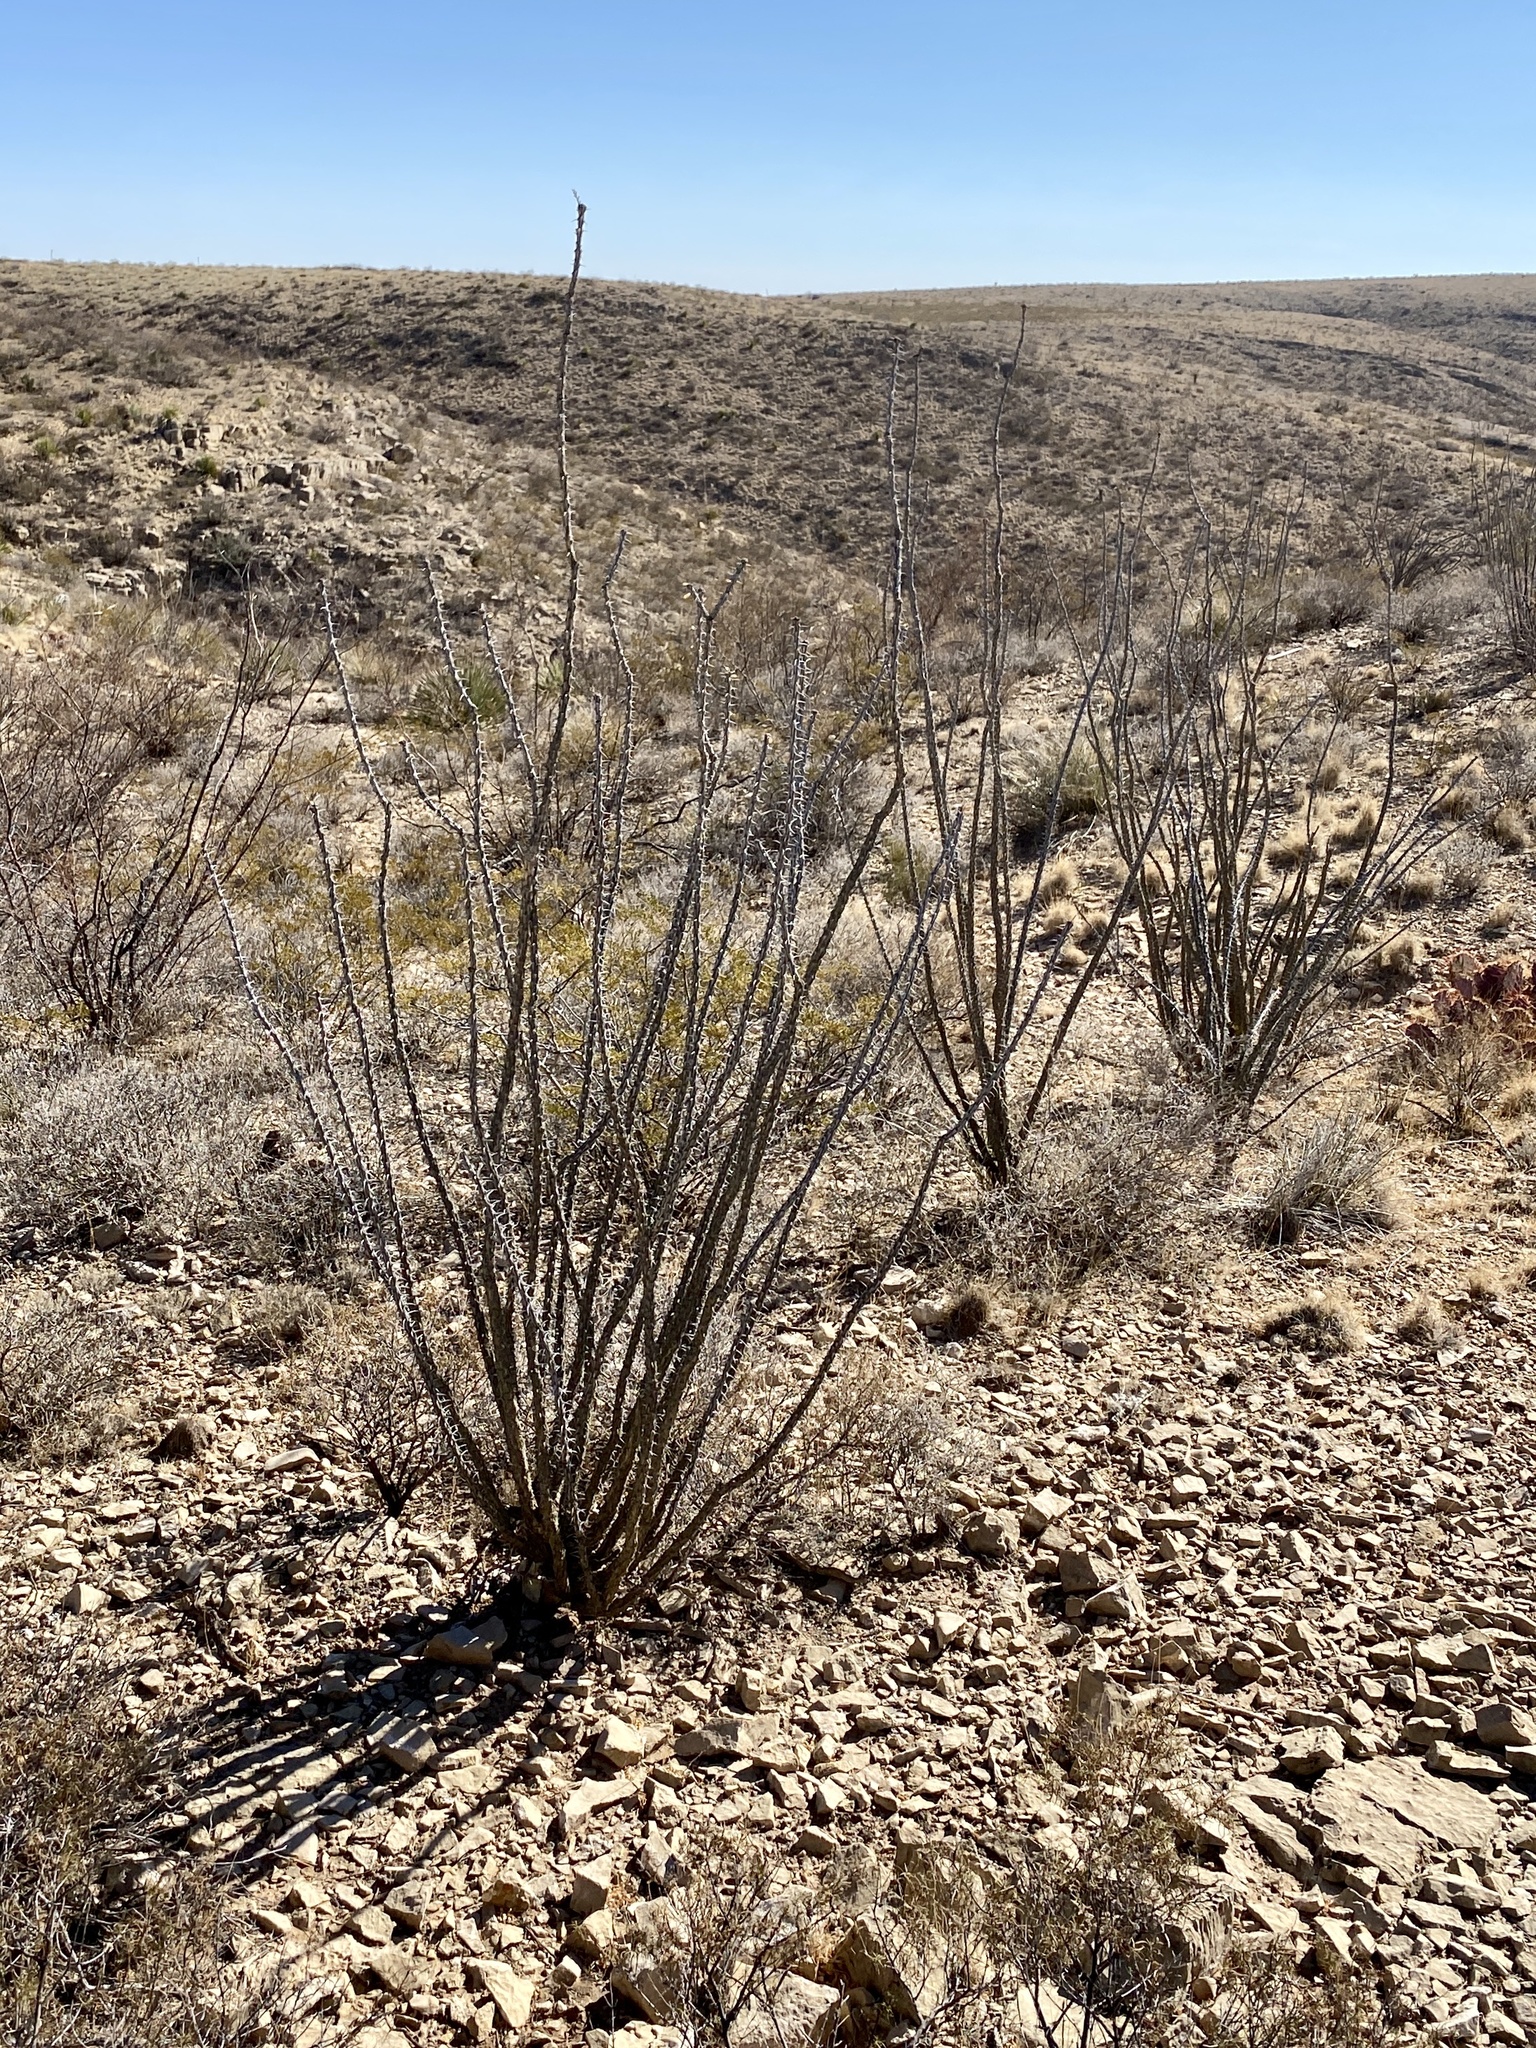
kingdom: Plantae
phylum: Tracheophyta
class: Magnoliopsida
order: Ericales
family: Fouquieriaceae
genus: Fouquieria
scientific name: Fouquieria splendens
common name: Vine-cactus
